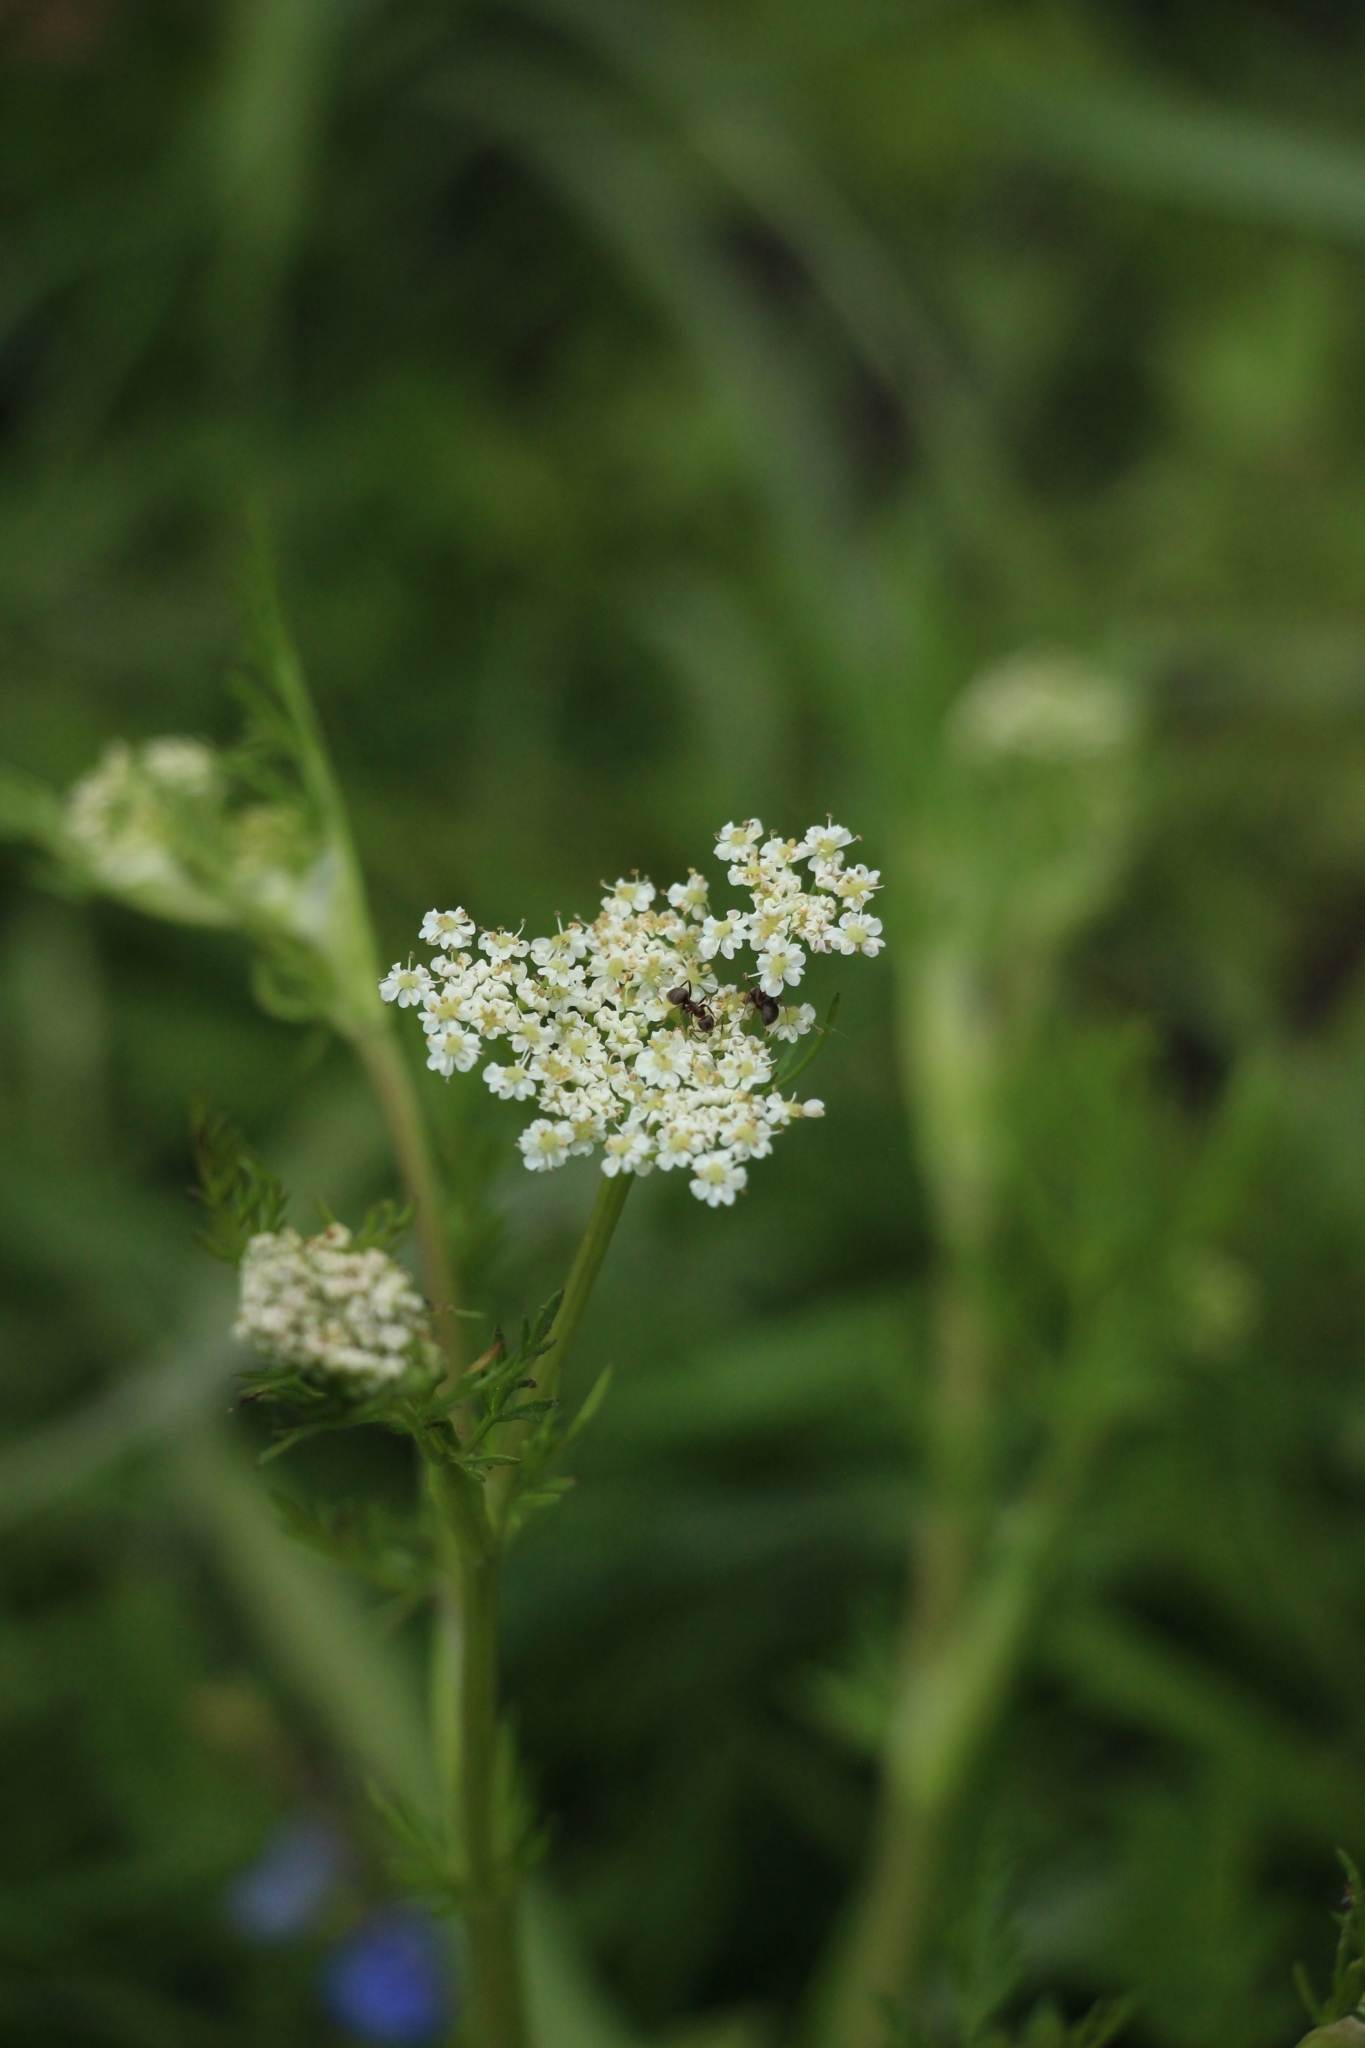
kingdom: Plantae
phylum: Tracheophyta
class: Magnoliopsida
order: Apiales
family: Apiaceae
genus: Carum
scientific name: Carum carvi
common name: Caraway
